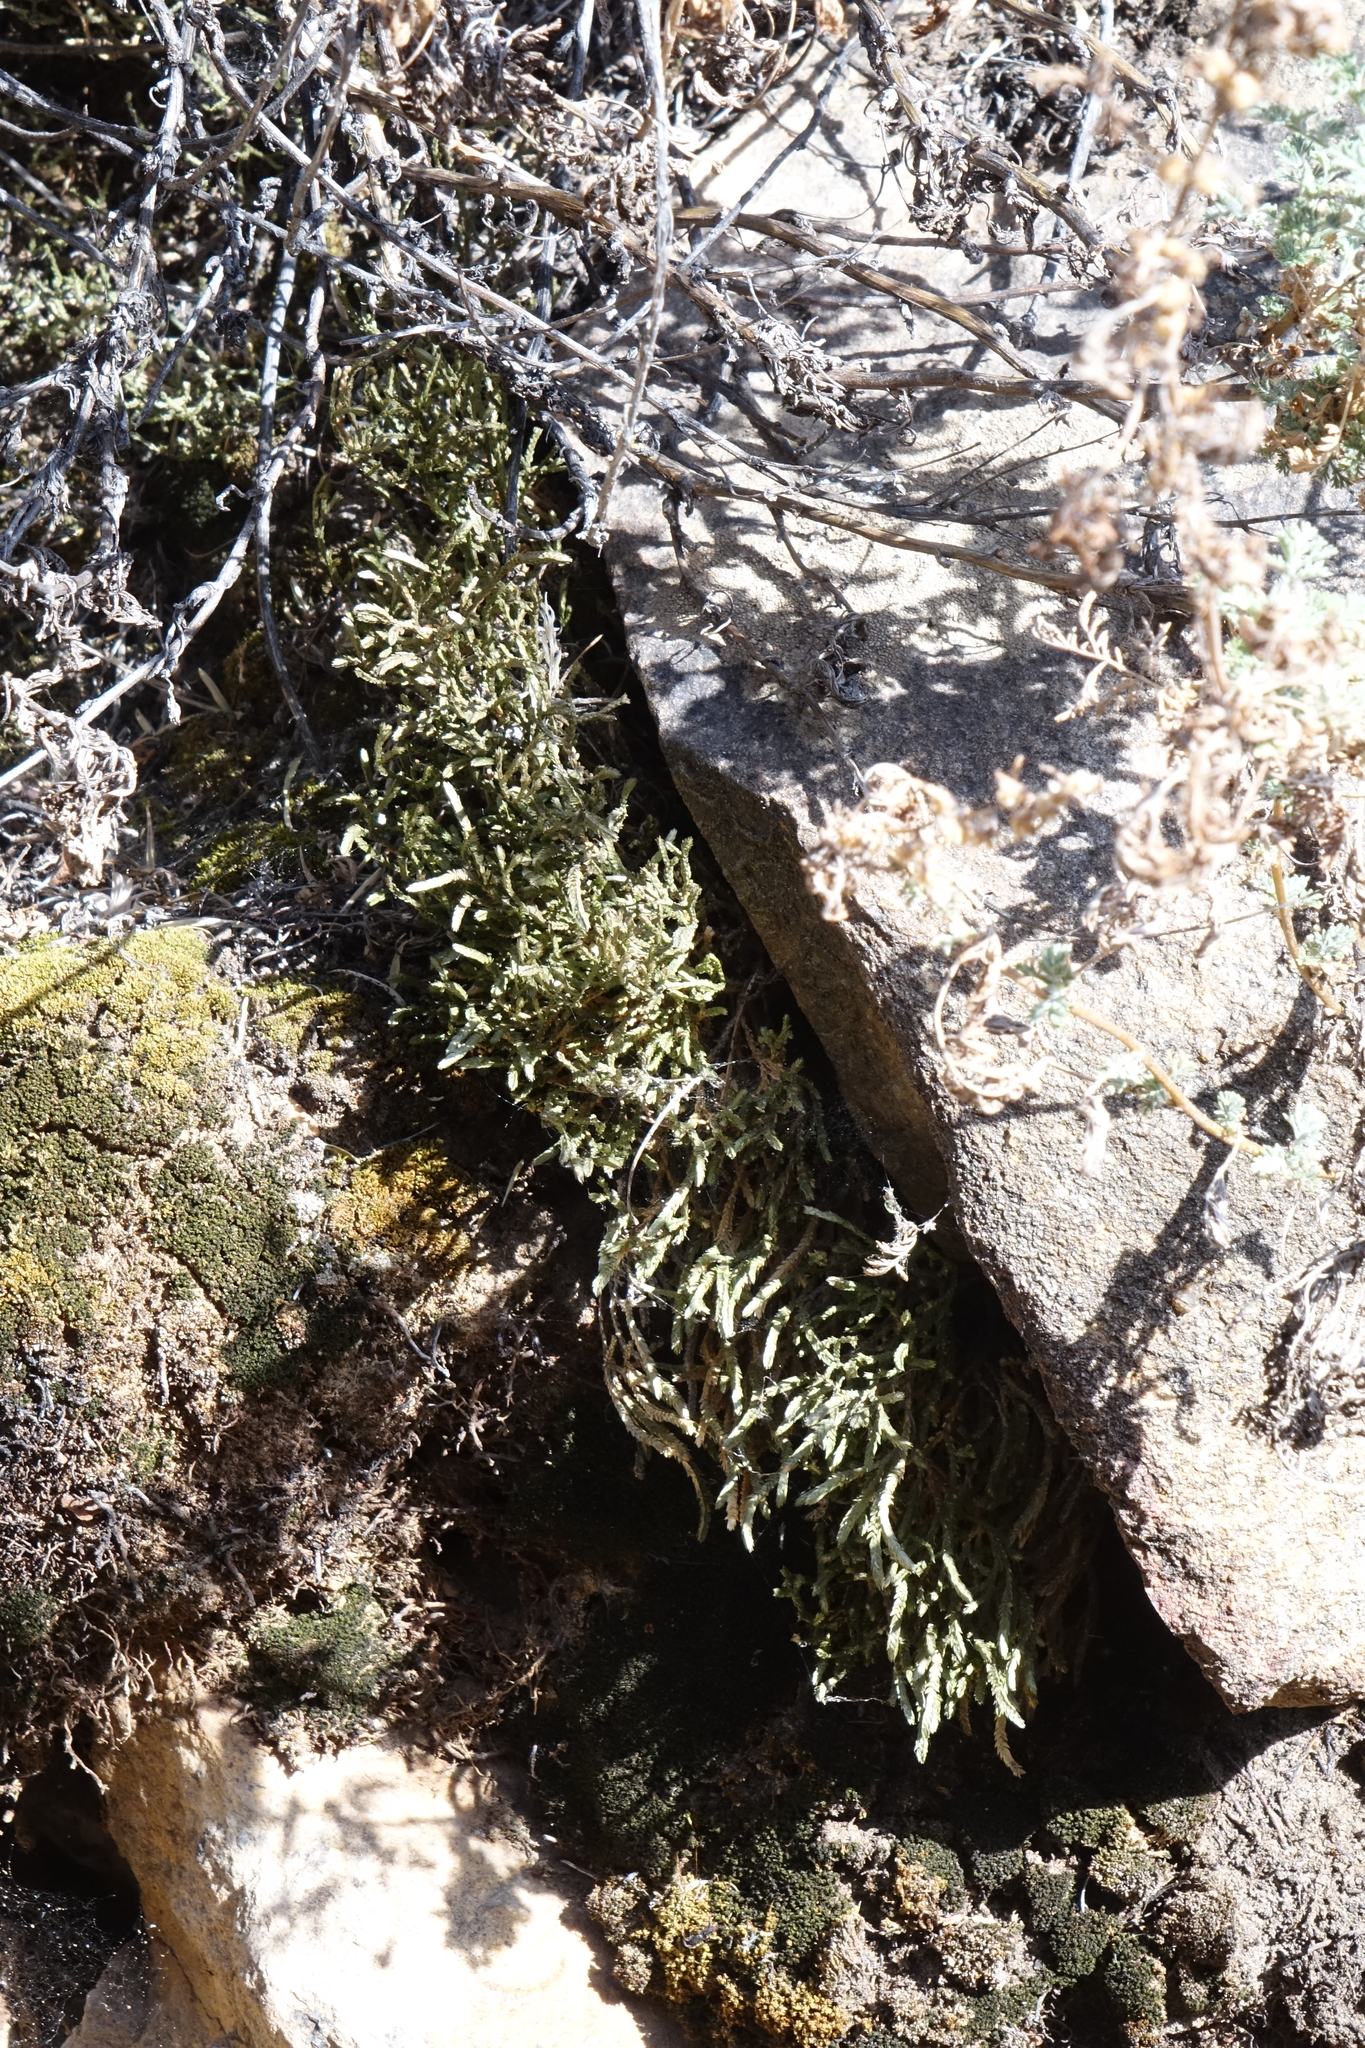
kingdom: Plantae
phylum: Tracheophyta
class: Lycopodiopsida
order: Selaginellales
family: Selaginellaceae
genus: Selaginella
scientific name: Selaginella sanguinolenta
